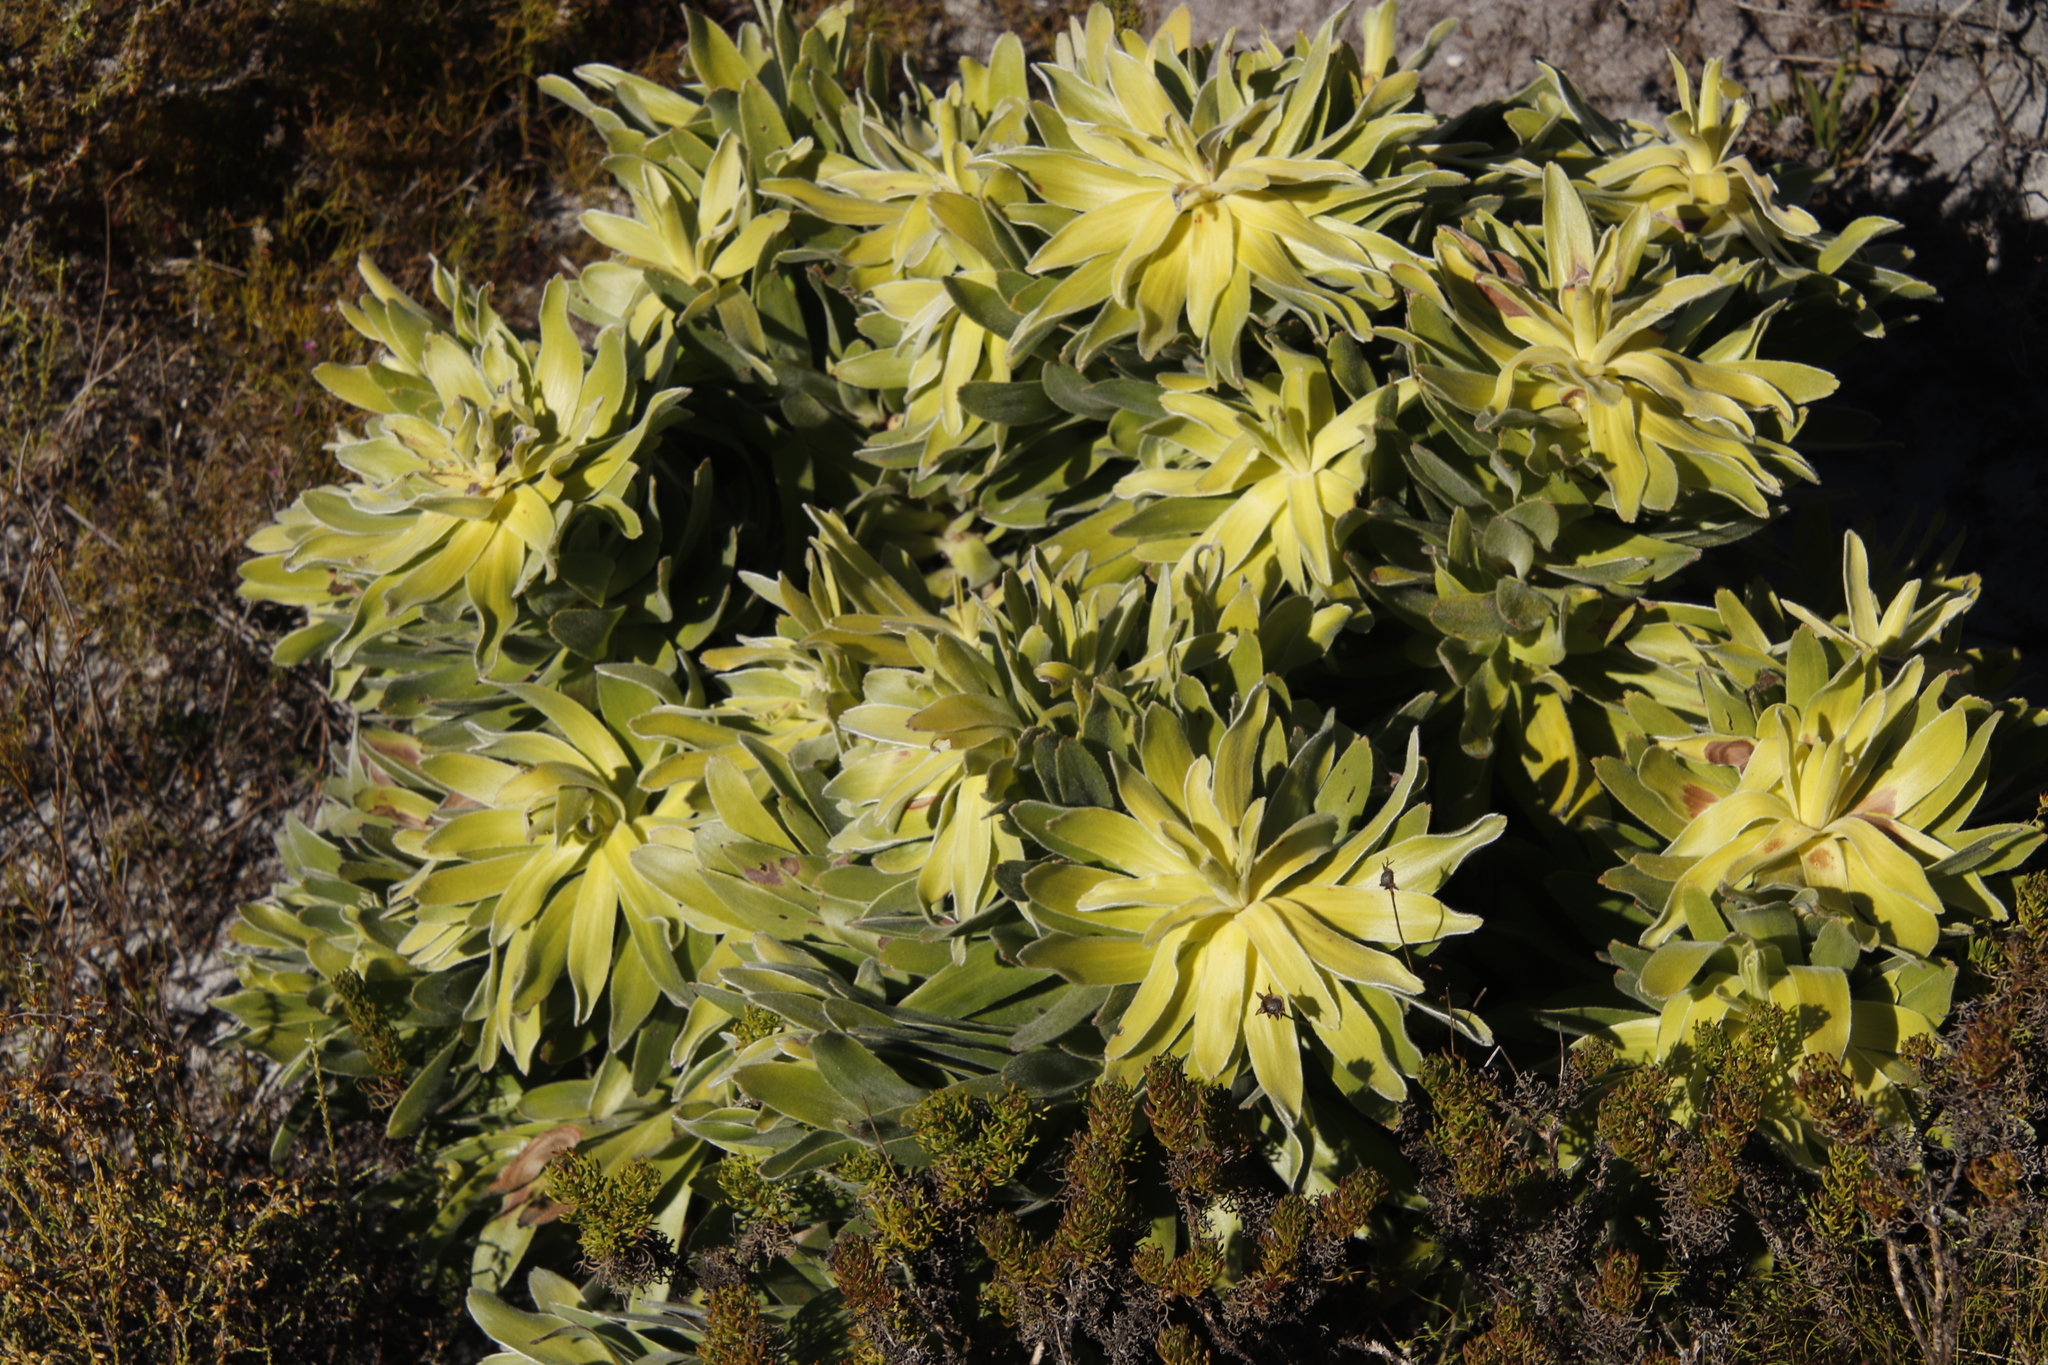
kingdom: Plantae
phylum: Tracheophyta
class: Magnoliopsida
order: Proteales
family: Proteaceae
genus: Leucadendron
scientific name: Leucadendron laureolum
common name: Golden sunshinebush
